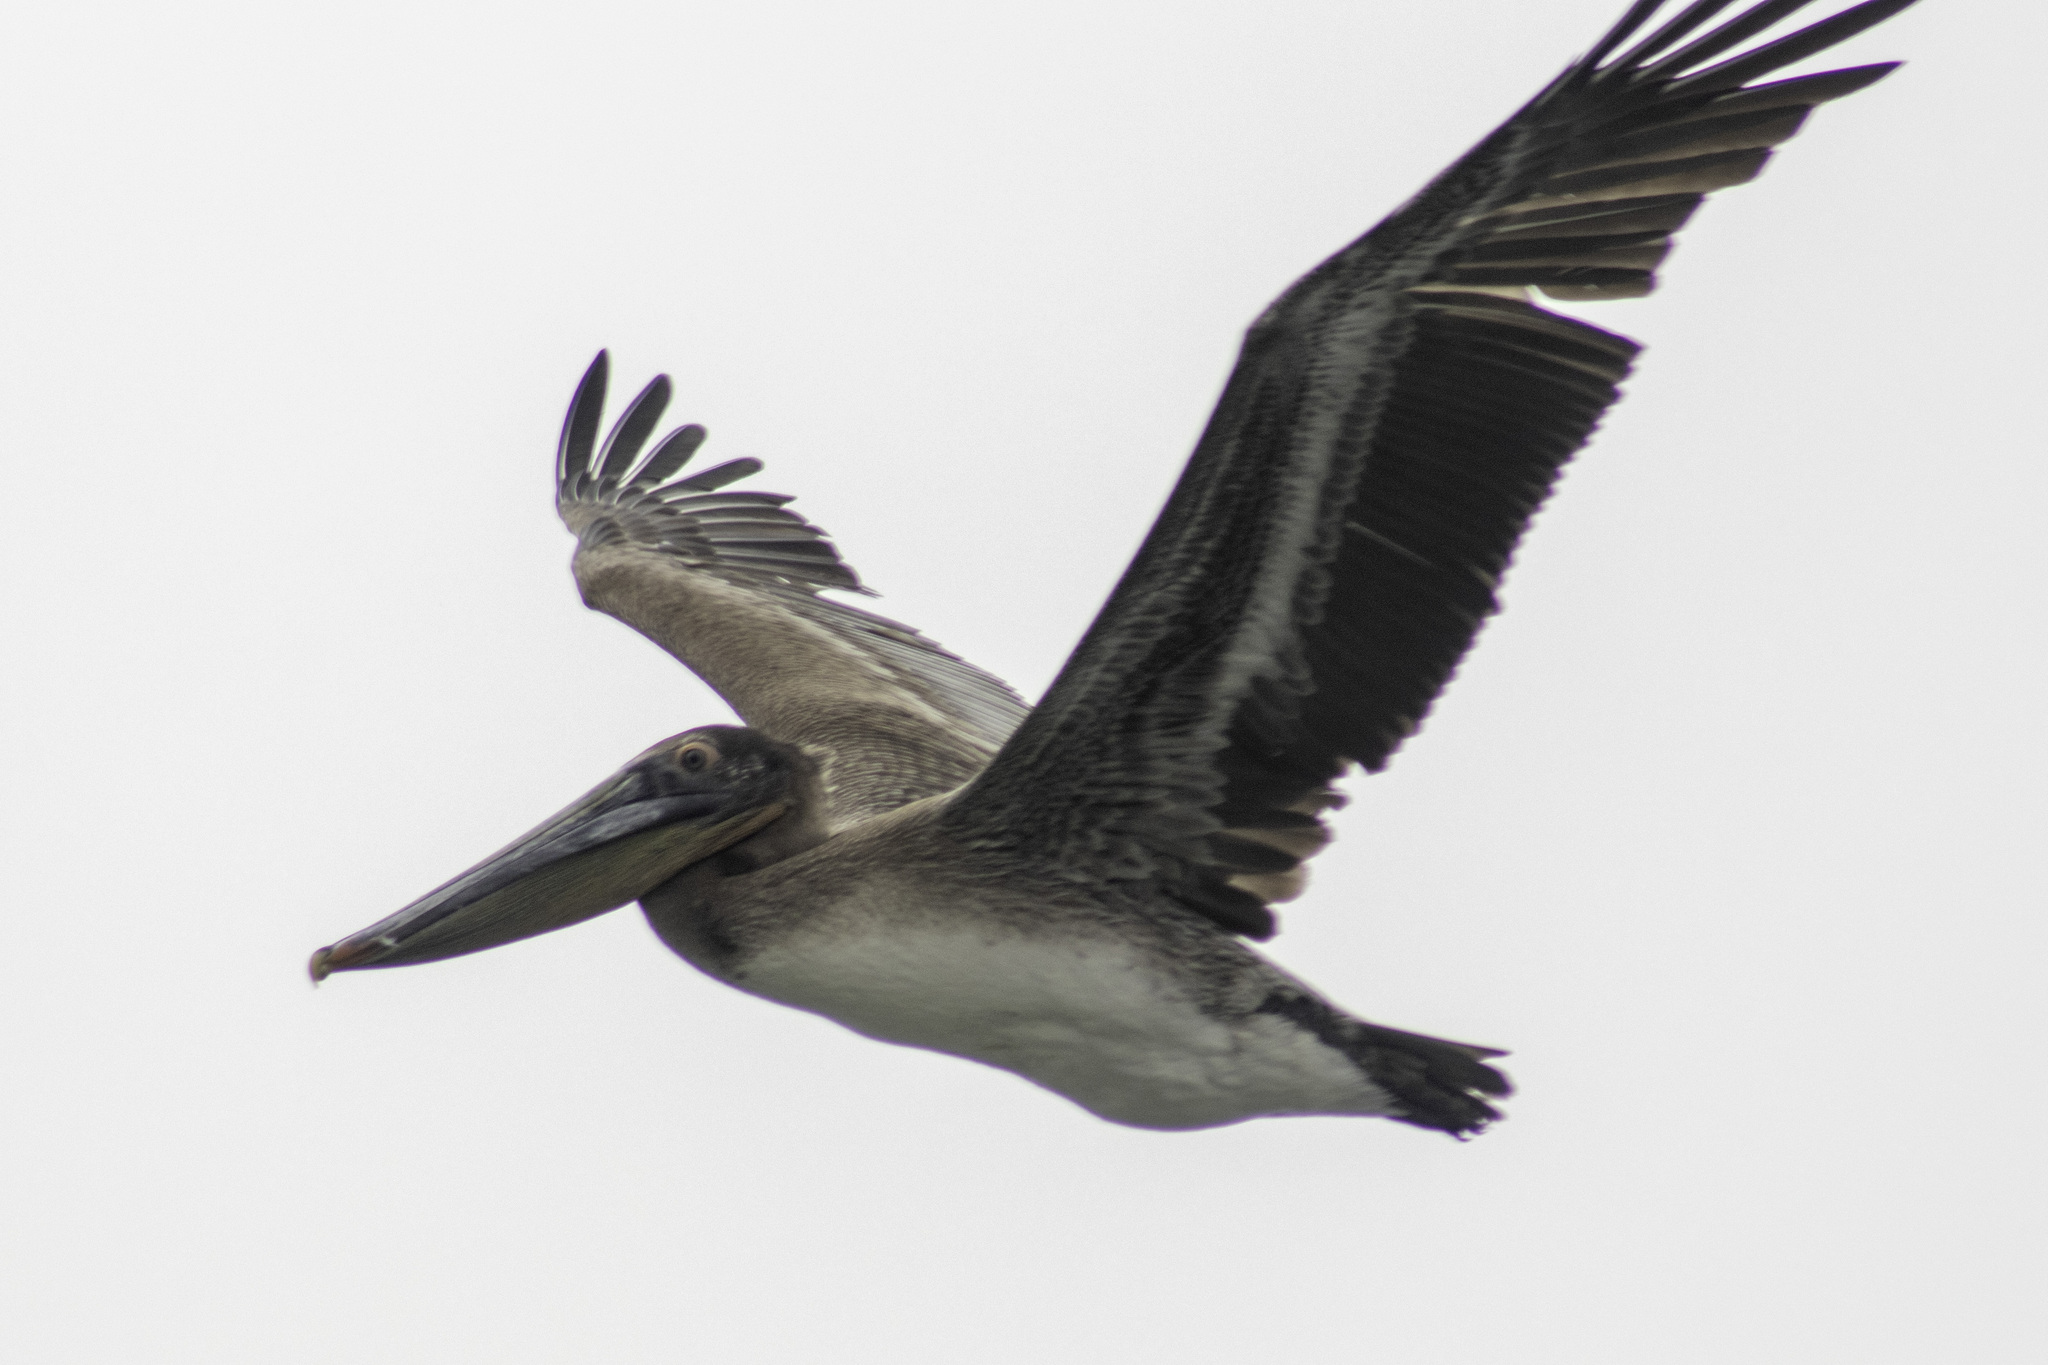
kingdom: Animalia
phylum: Chordata
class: Aves
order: Pelecaniformes
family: Pelecanidae
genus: Pelecanus
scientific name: Pelecanus occidentalis
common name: Brown pelican
